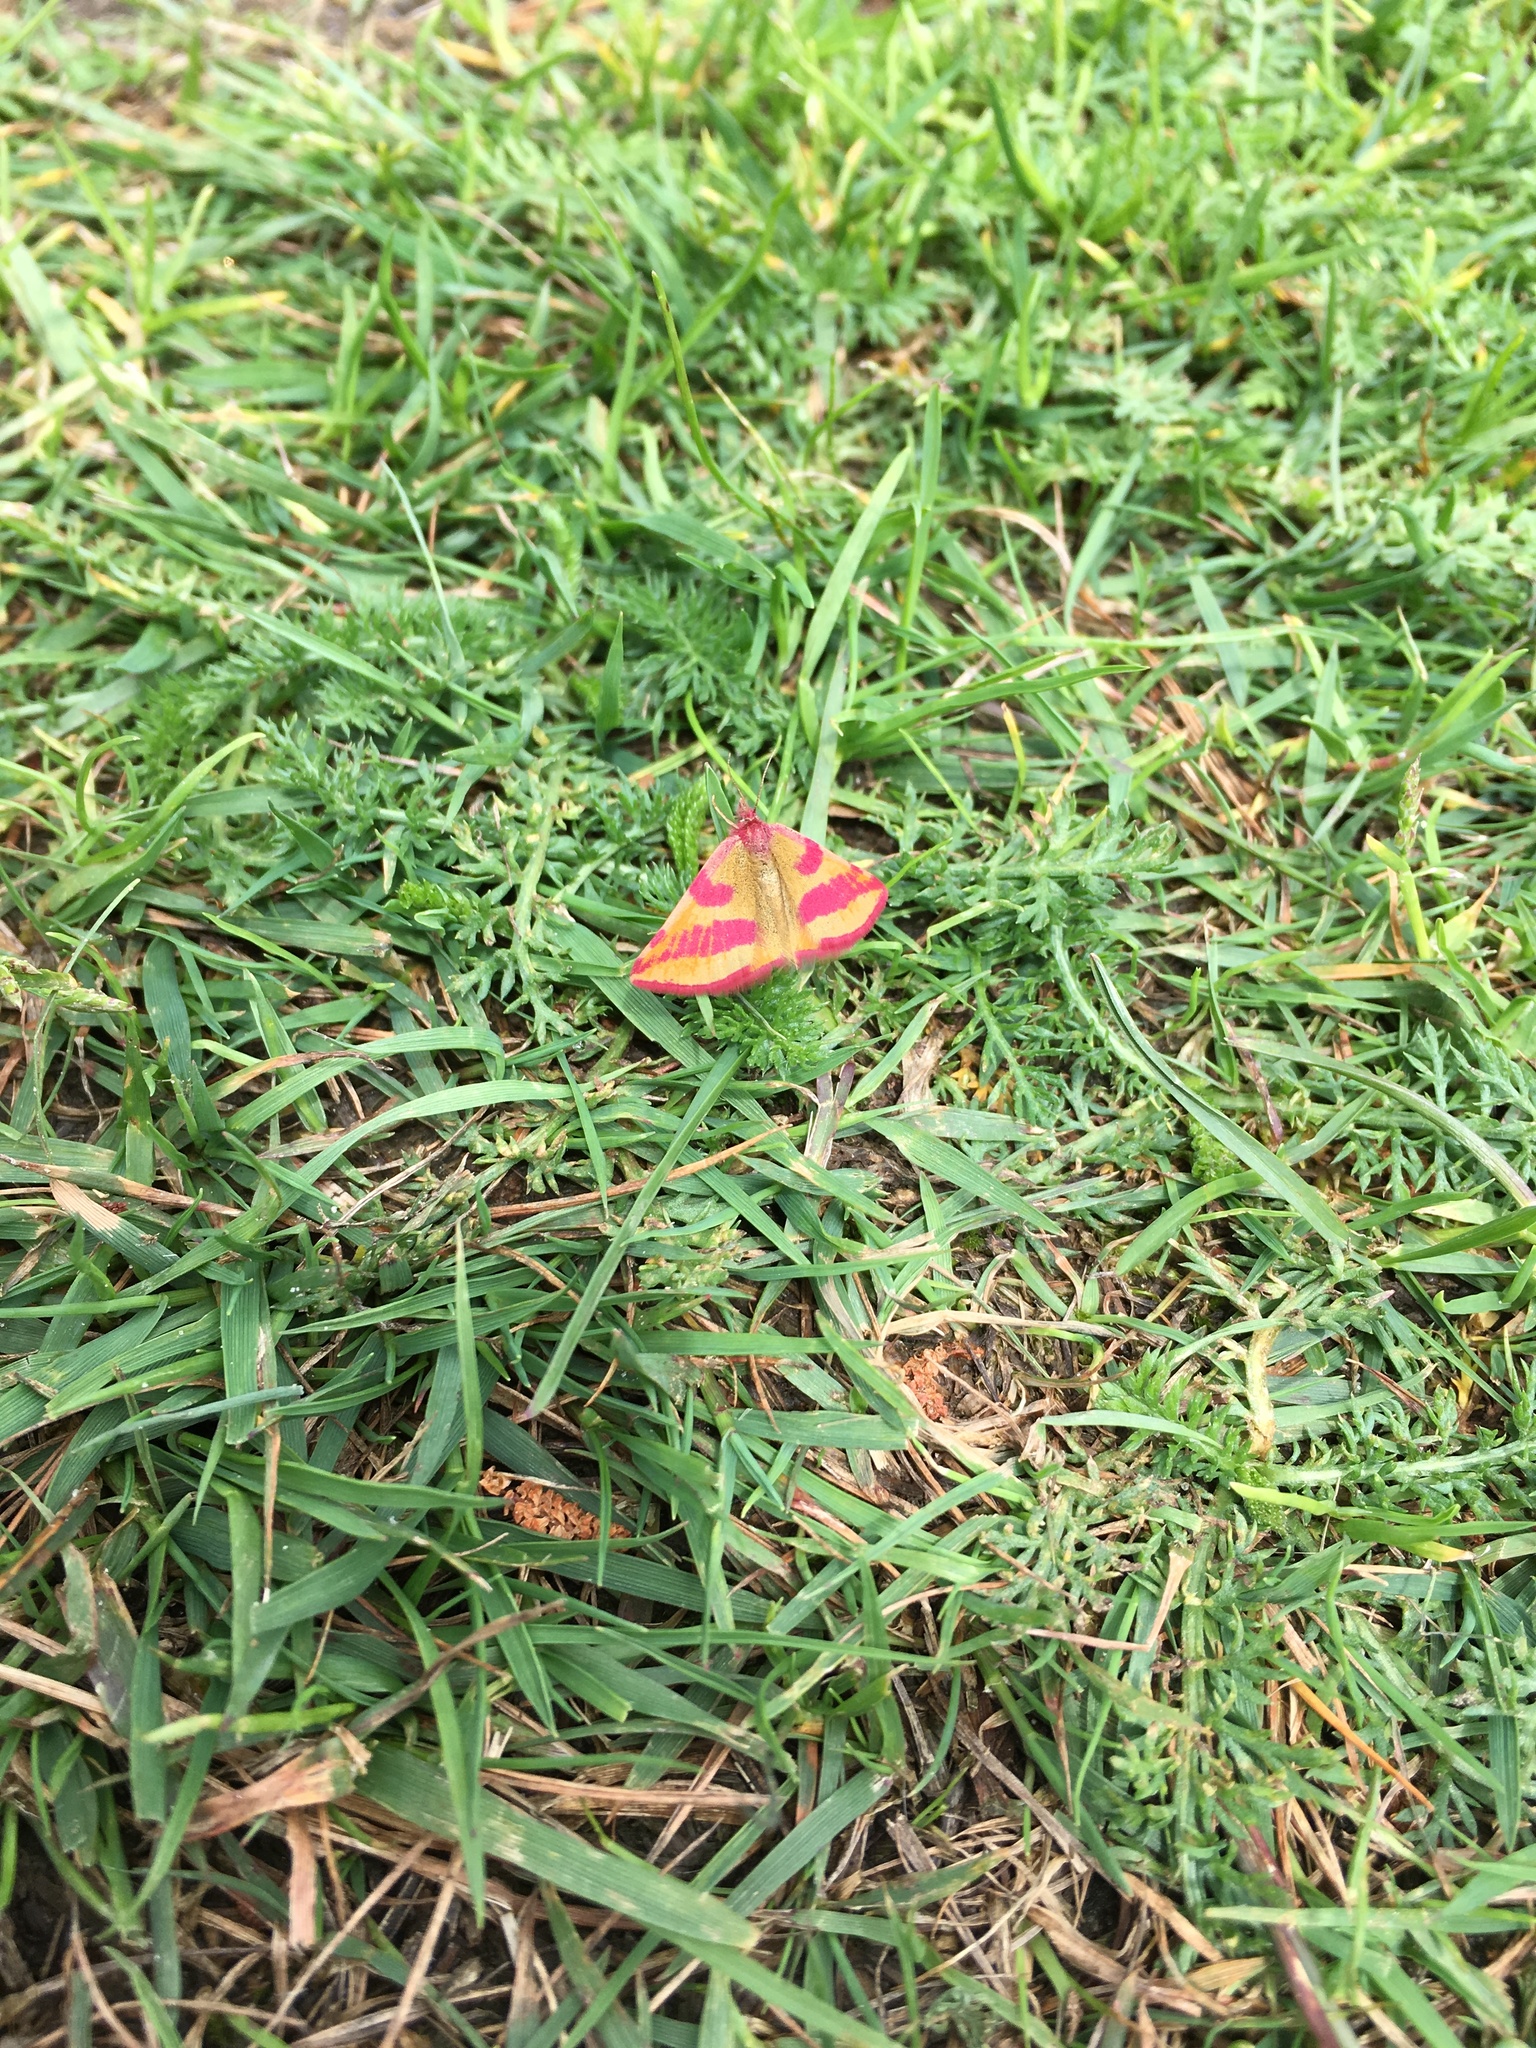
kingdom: Animalia
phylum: Arthropoda
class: Insecta
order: Lepidoptera
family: Geometridae
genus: Lythria
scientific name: Lythria cruentaria
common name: Purple-barred yellow
